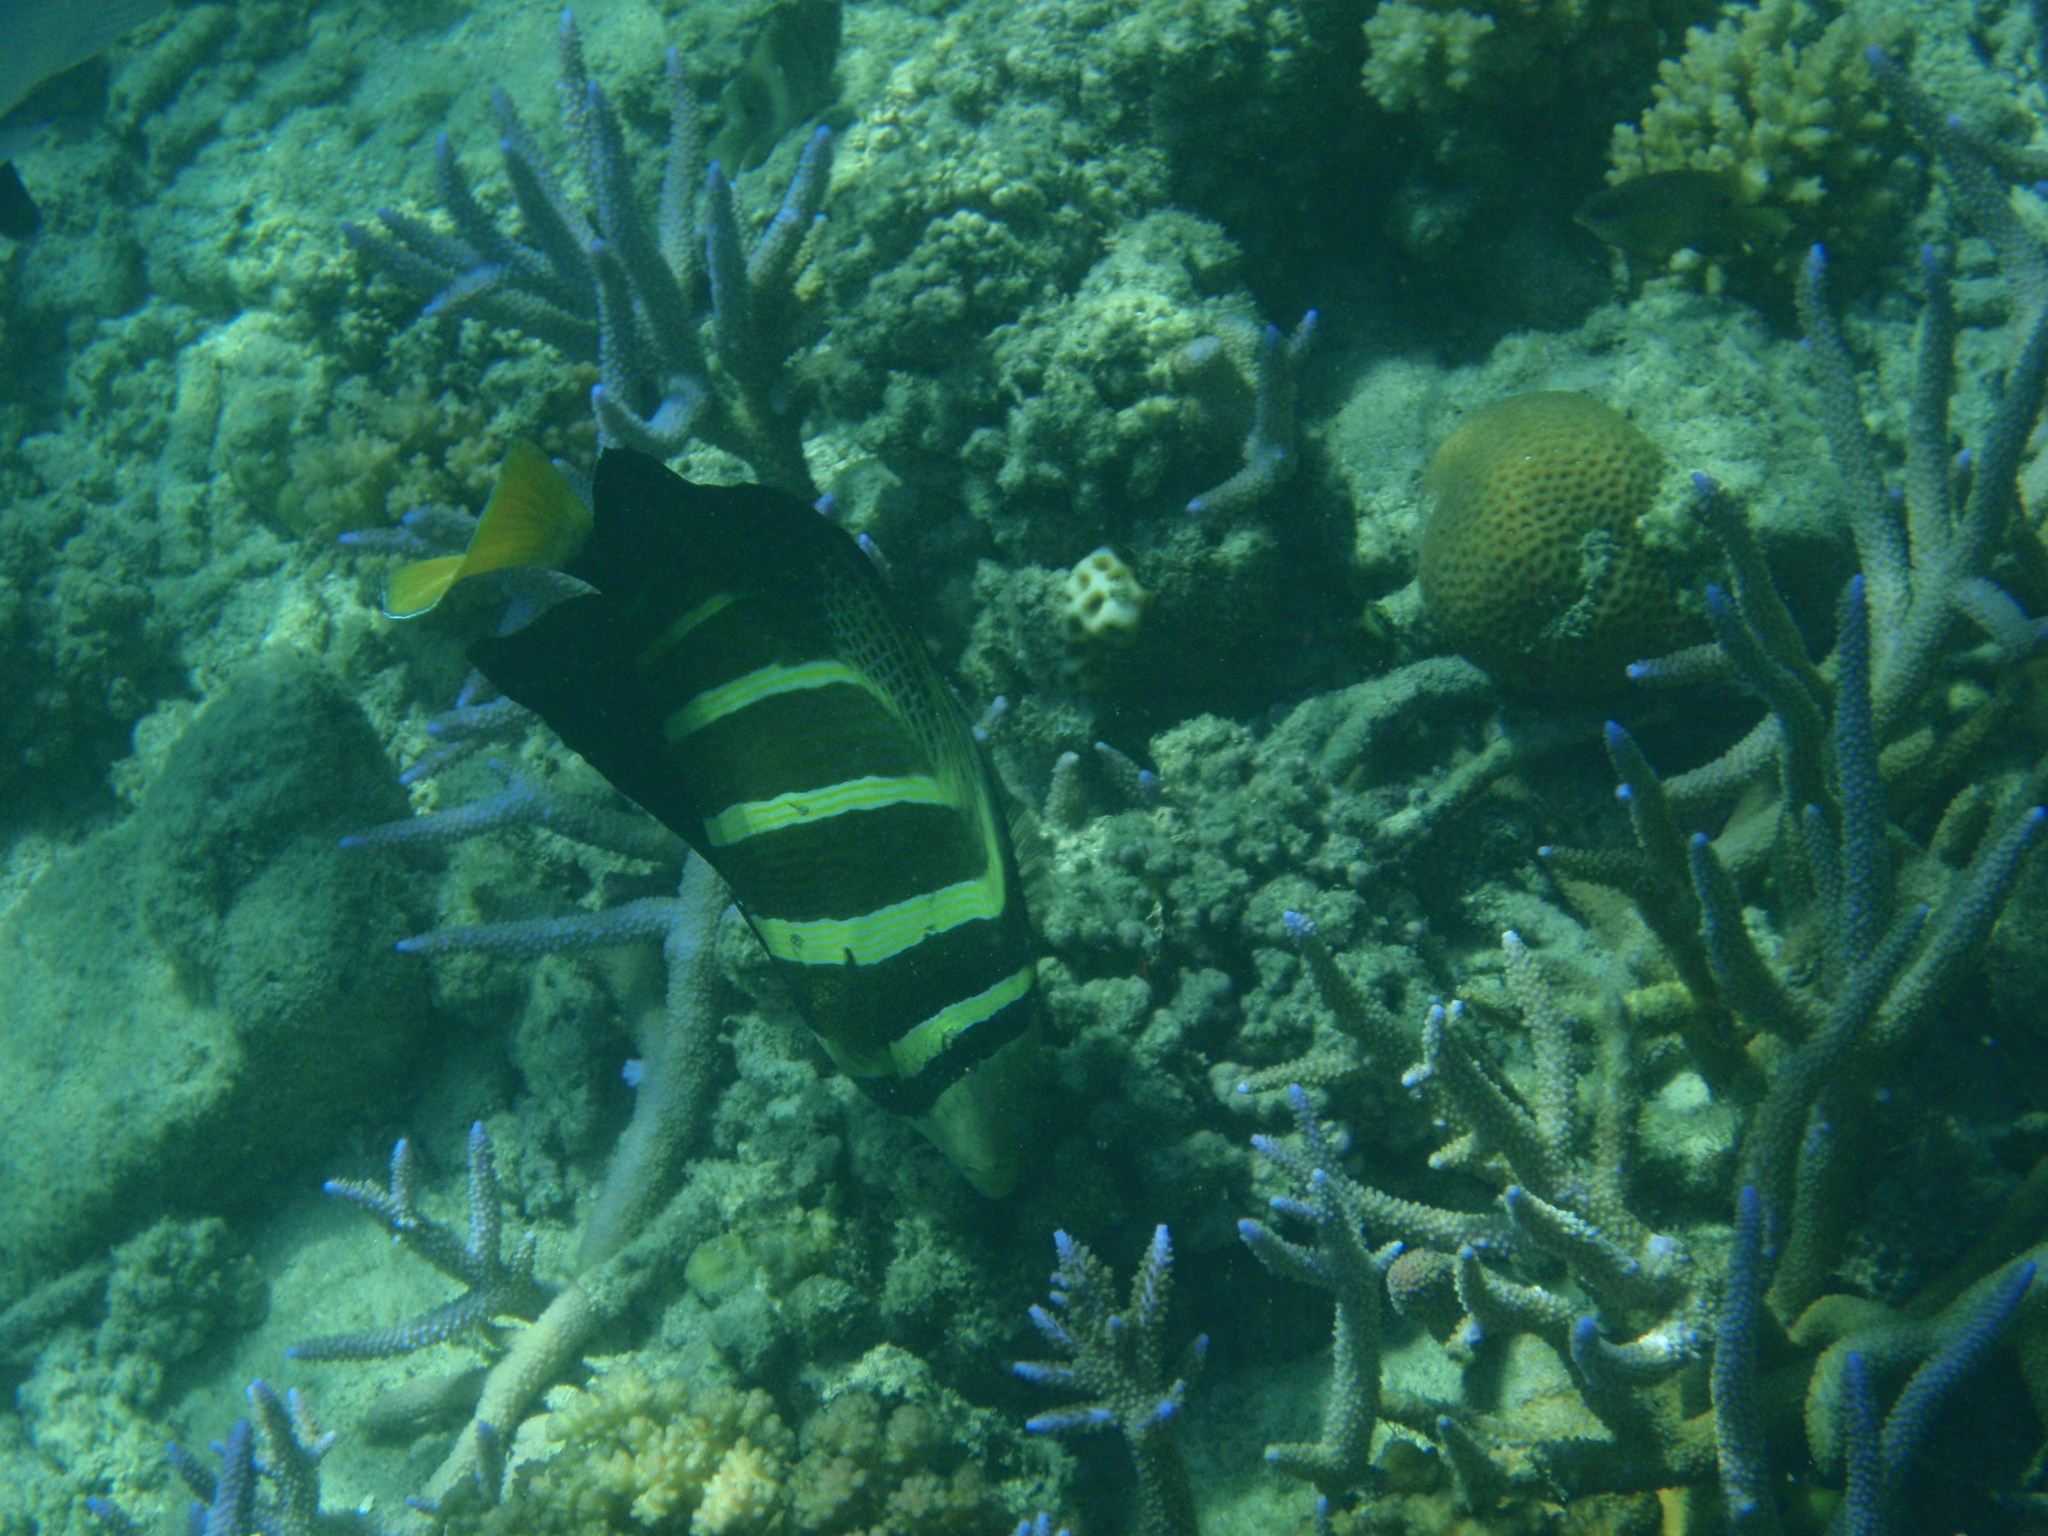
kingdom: Animalia
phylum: Chordata
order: Perciformes
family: Acanthuridae
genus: Zebrasoma
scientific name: Zebrasoma veliferum
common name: Sailfin surgeonfish
